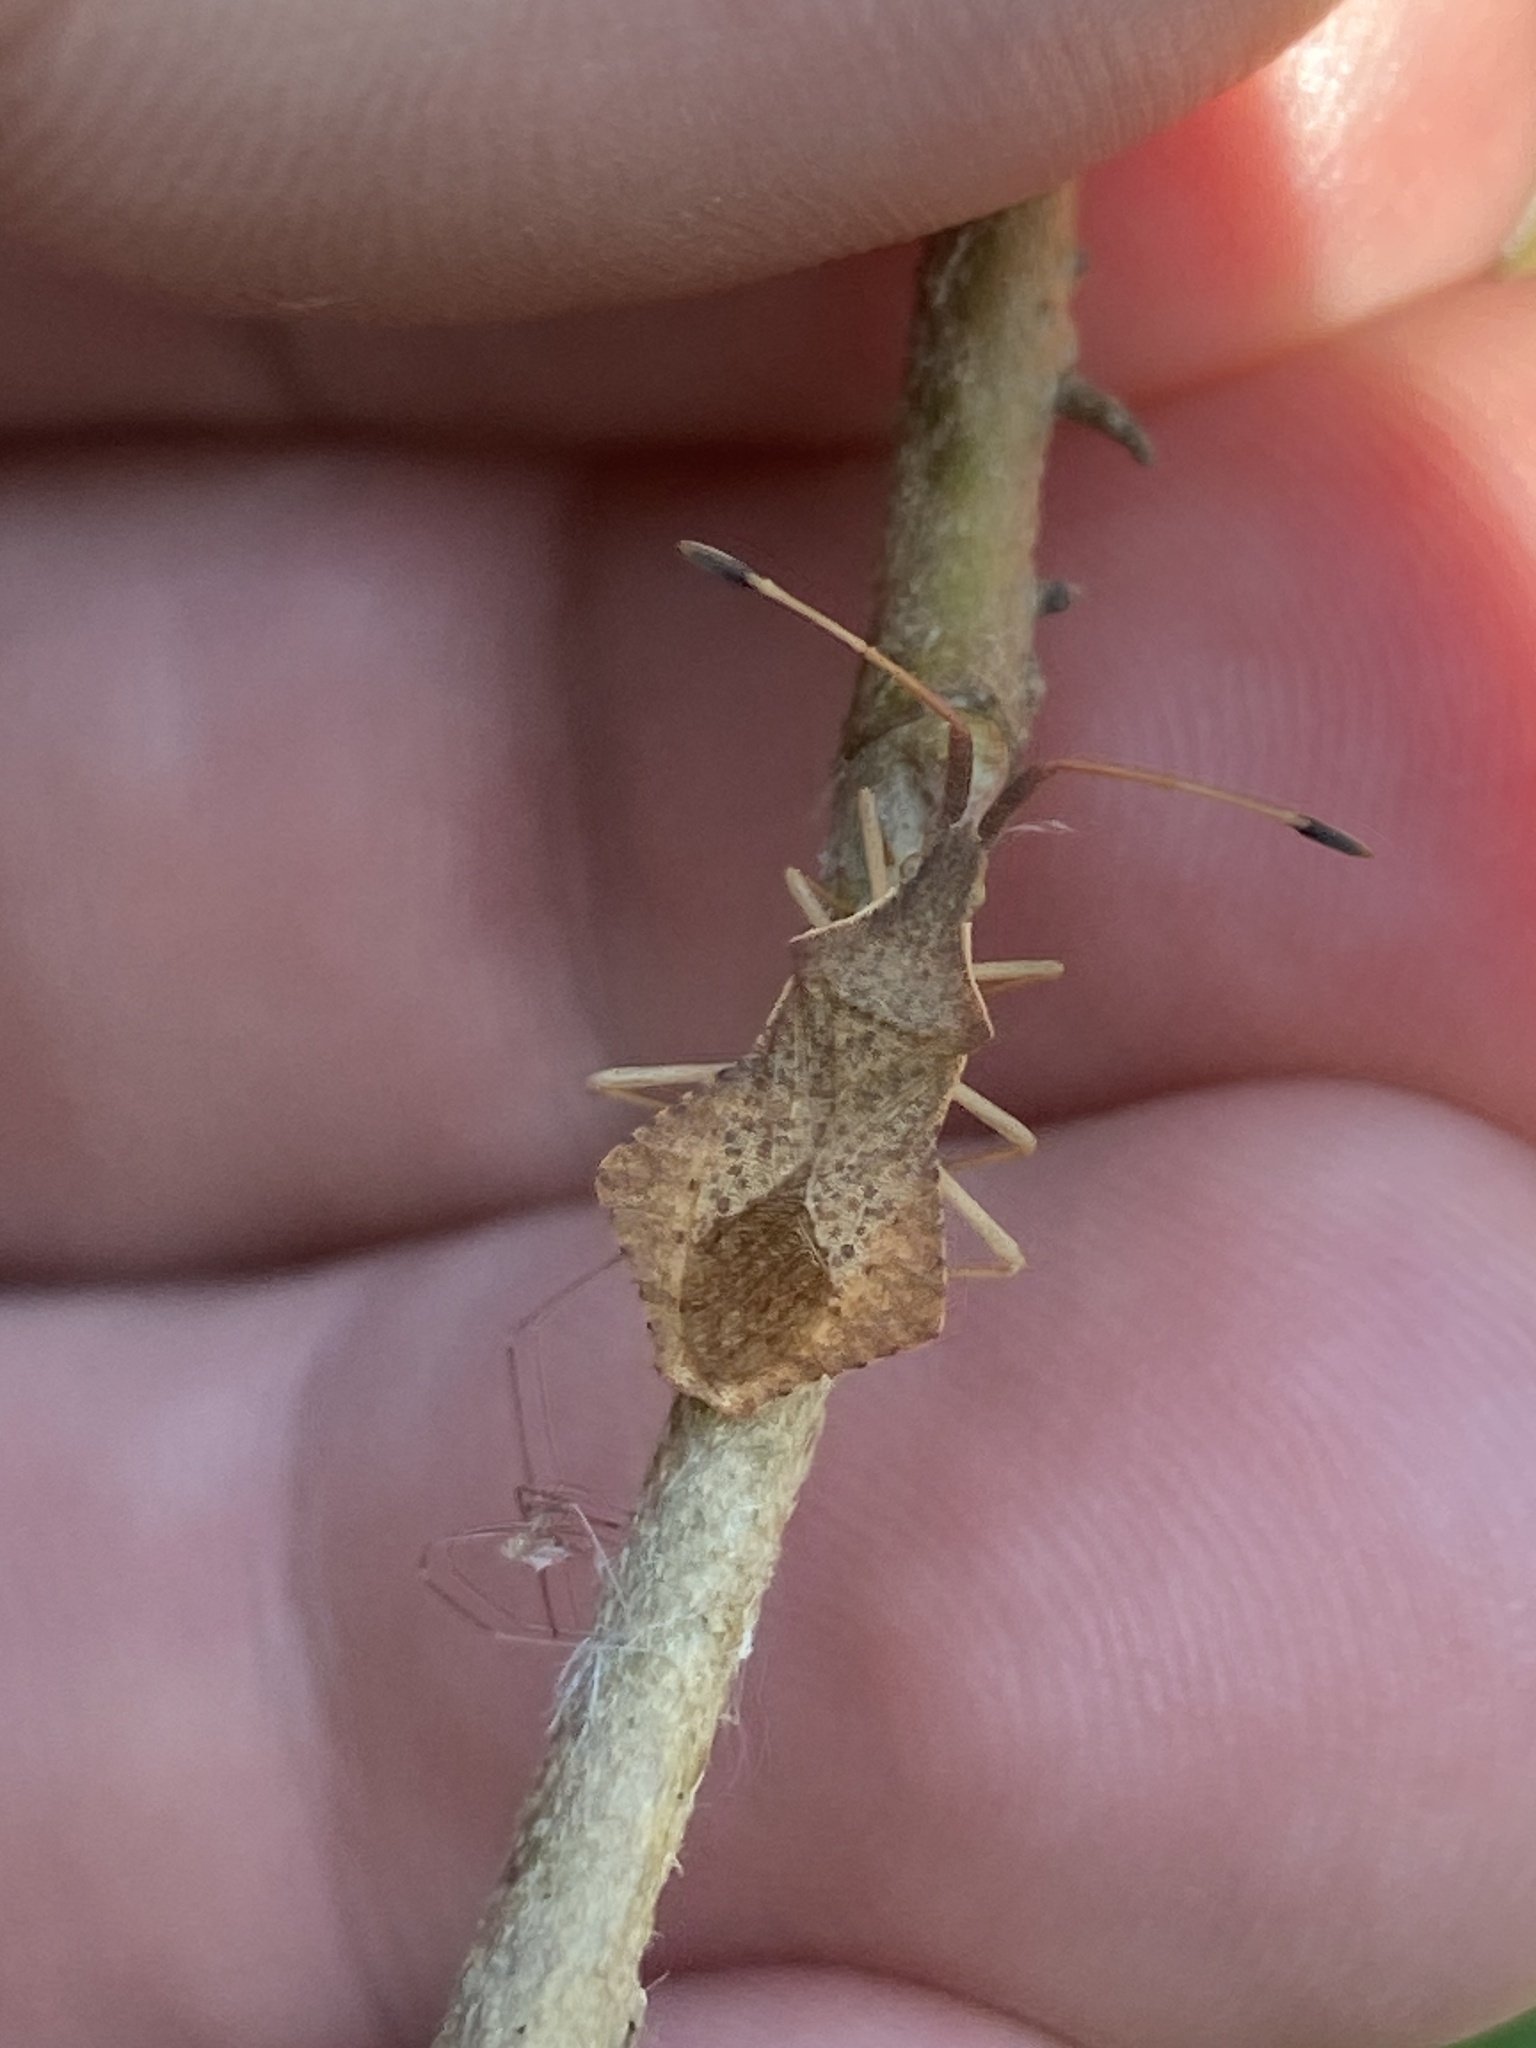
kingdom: Animalia
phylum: Arthropoda
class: Insecta
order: Hemiptera
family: Coreidae
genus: Syromastus
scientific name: Syromastus rhombeus
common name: Rhombic leatherbug
